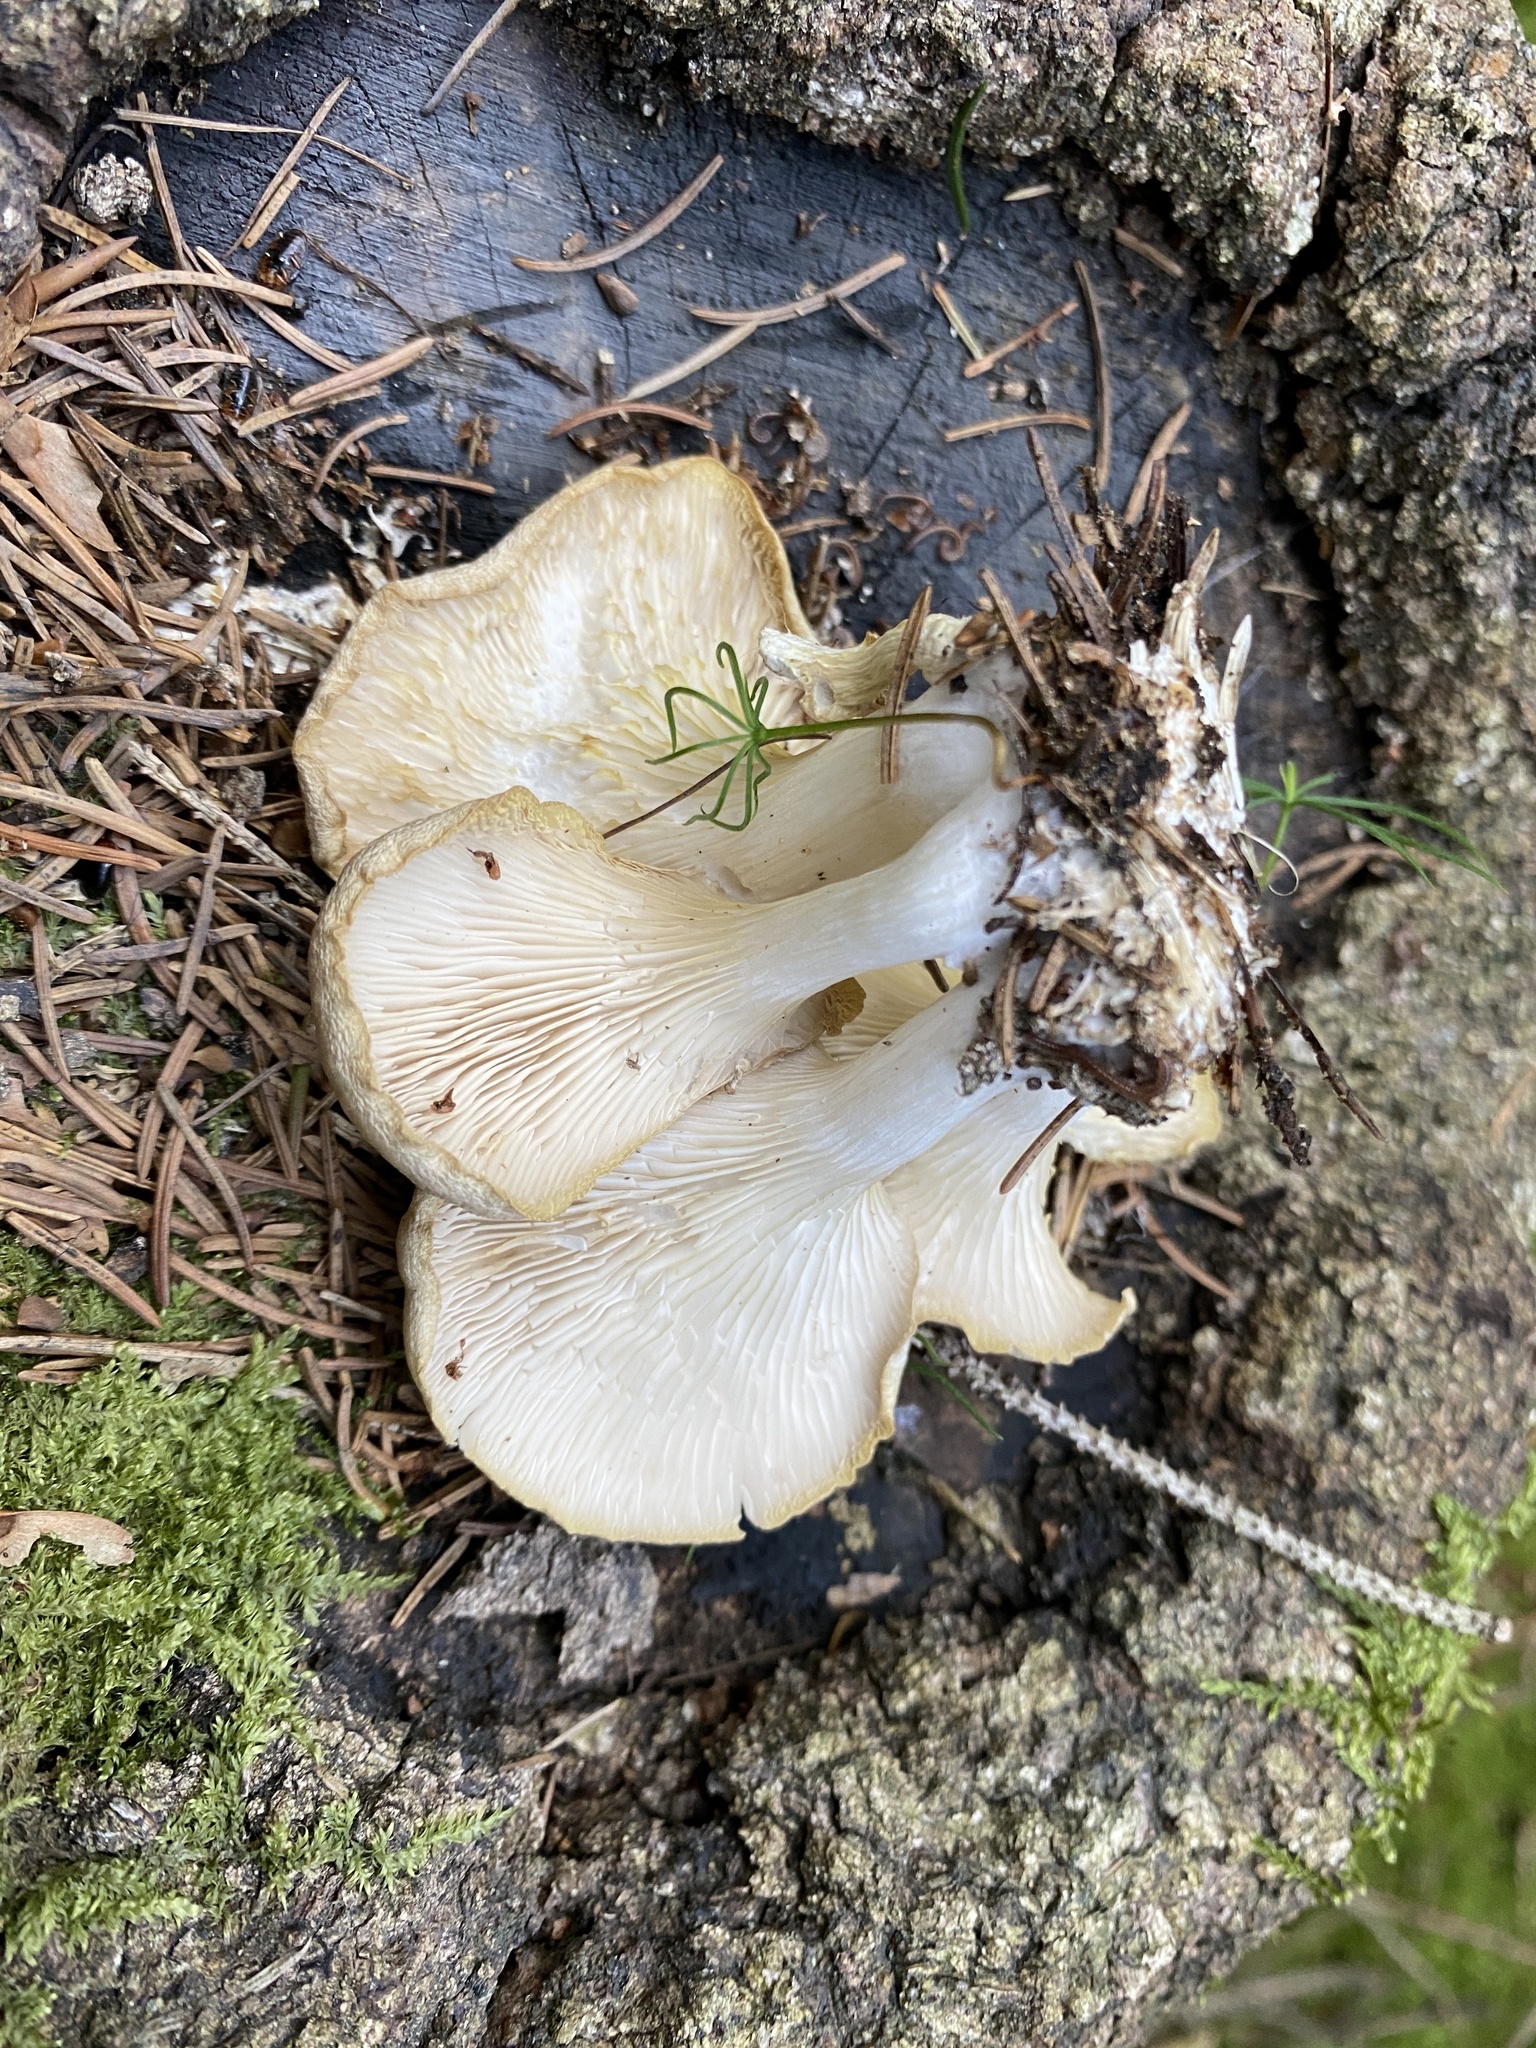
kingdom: Fungi
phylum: Basidiomycota
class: Agaricomycetes
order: Agaricales
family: Pleurotaceae
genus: Pleurotus
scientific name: Pleurotus pulmonarius
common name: Pale oyster
